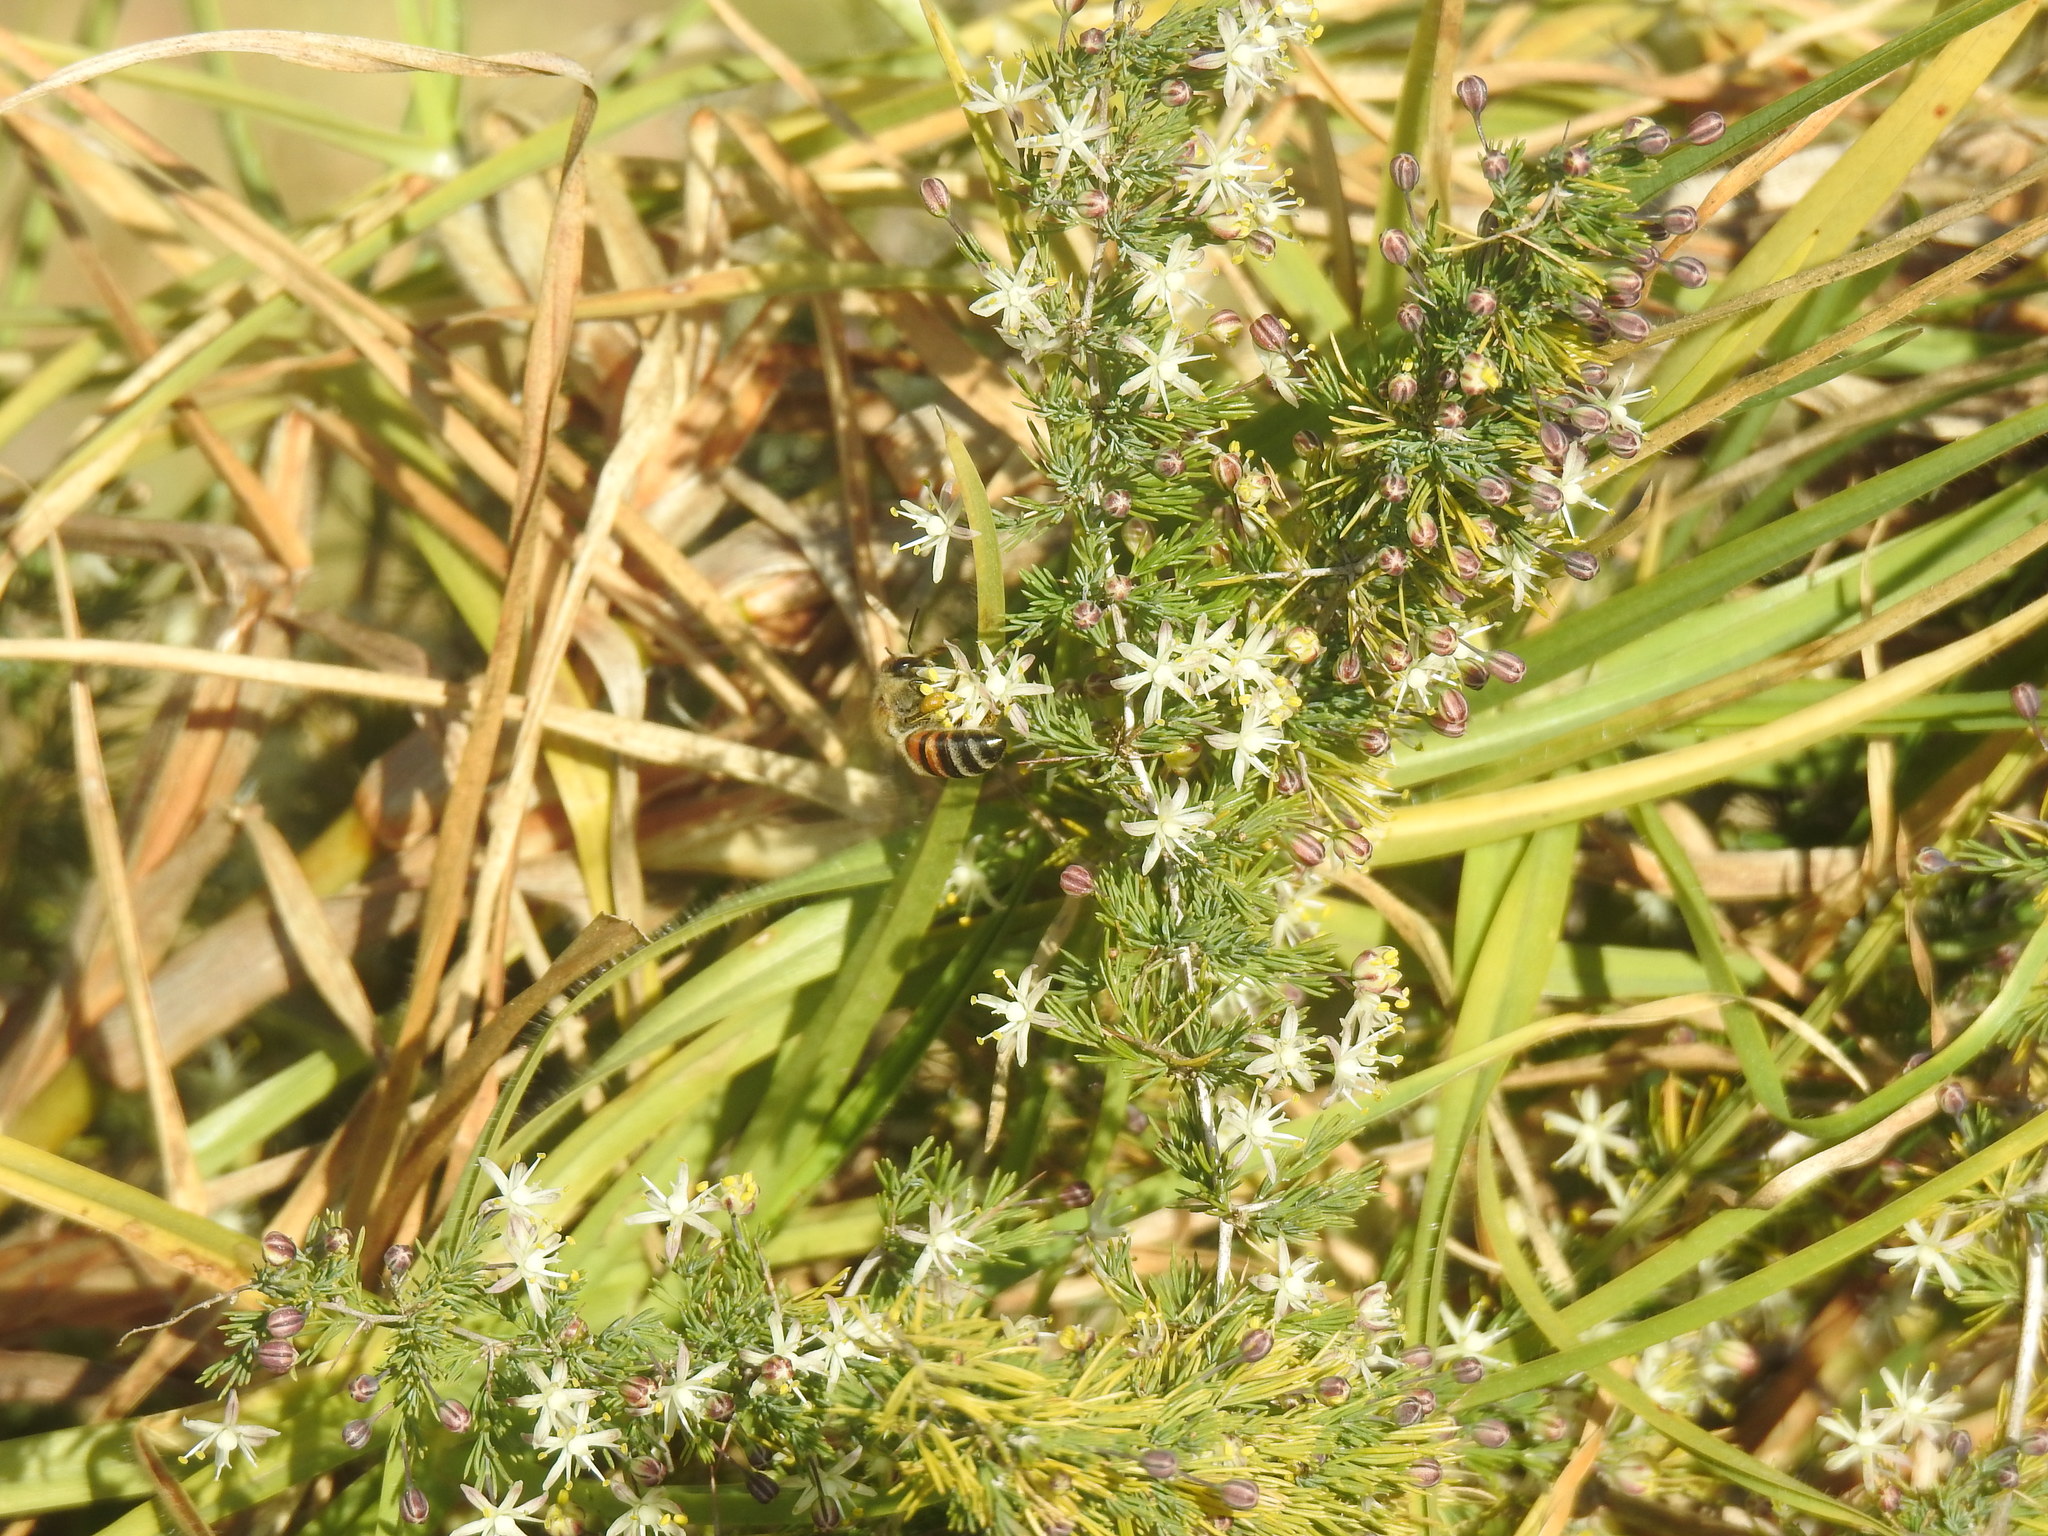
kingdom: Animalia
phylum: Arthropoda
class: Insecta
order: Hymenoptera
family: Apidae
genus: Apis
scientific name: Apis mellifera
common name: Honey bee
